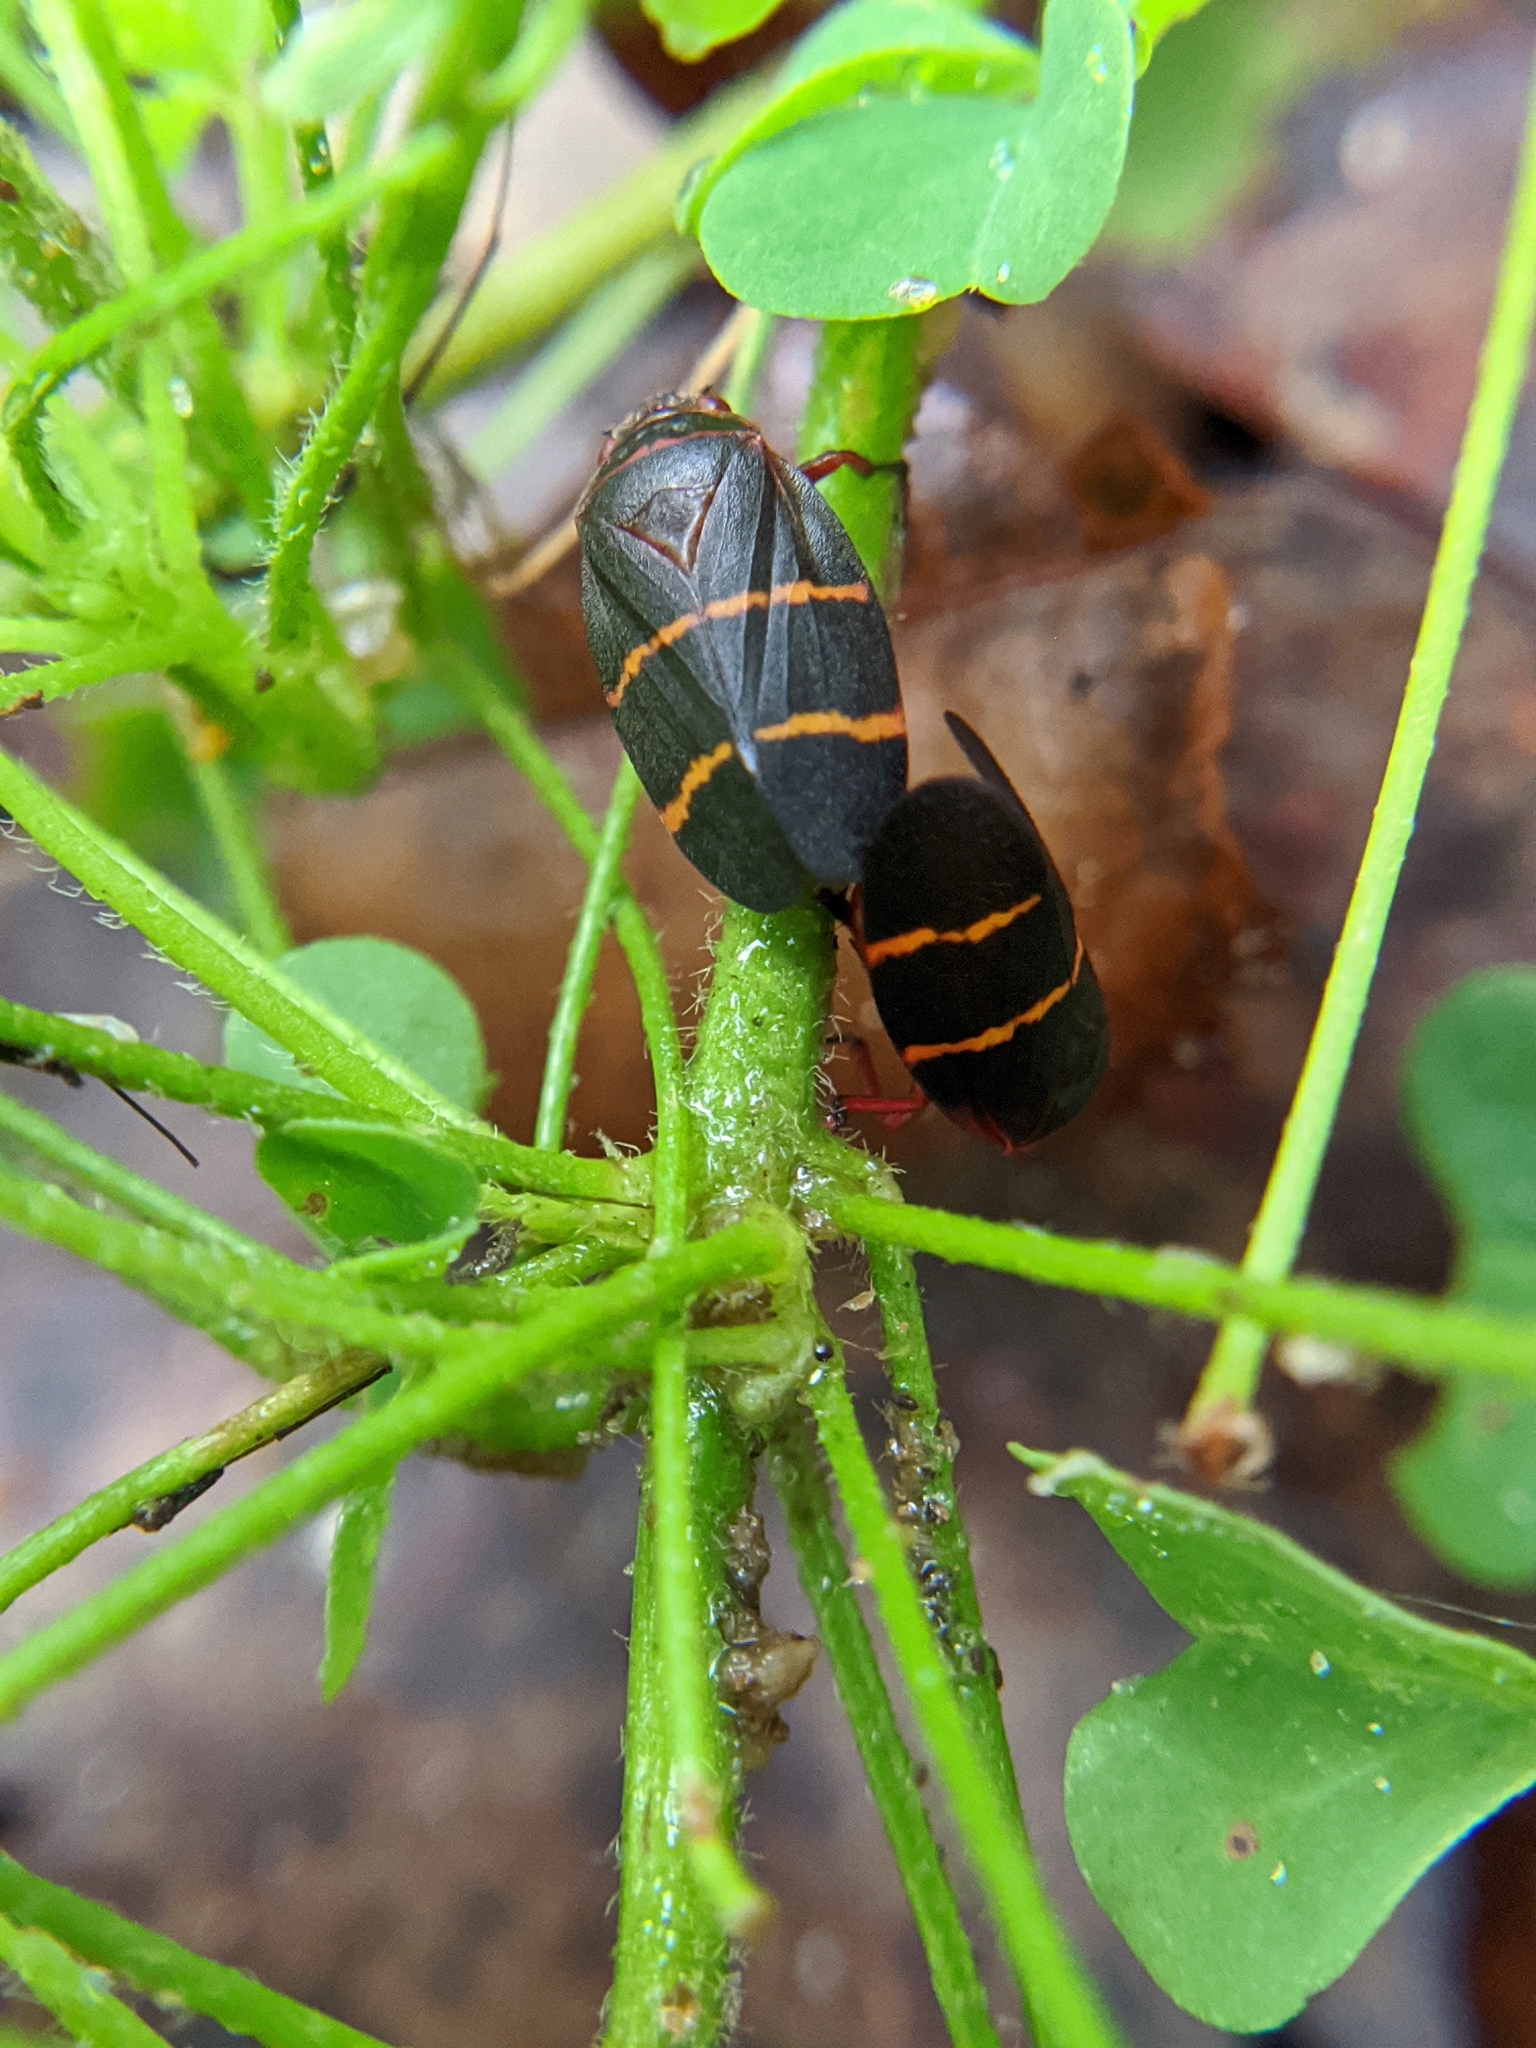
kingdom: Animalia
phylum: Arthropoda
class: Insecta
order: Hemiptera
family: Cercopidae
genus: Prosapia
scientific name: Prosapia bicincta
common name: Twolined spittlebug
